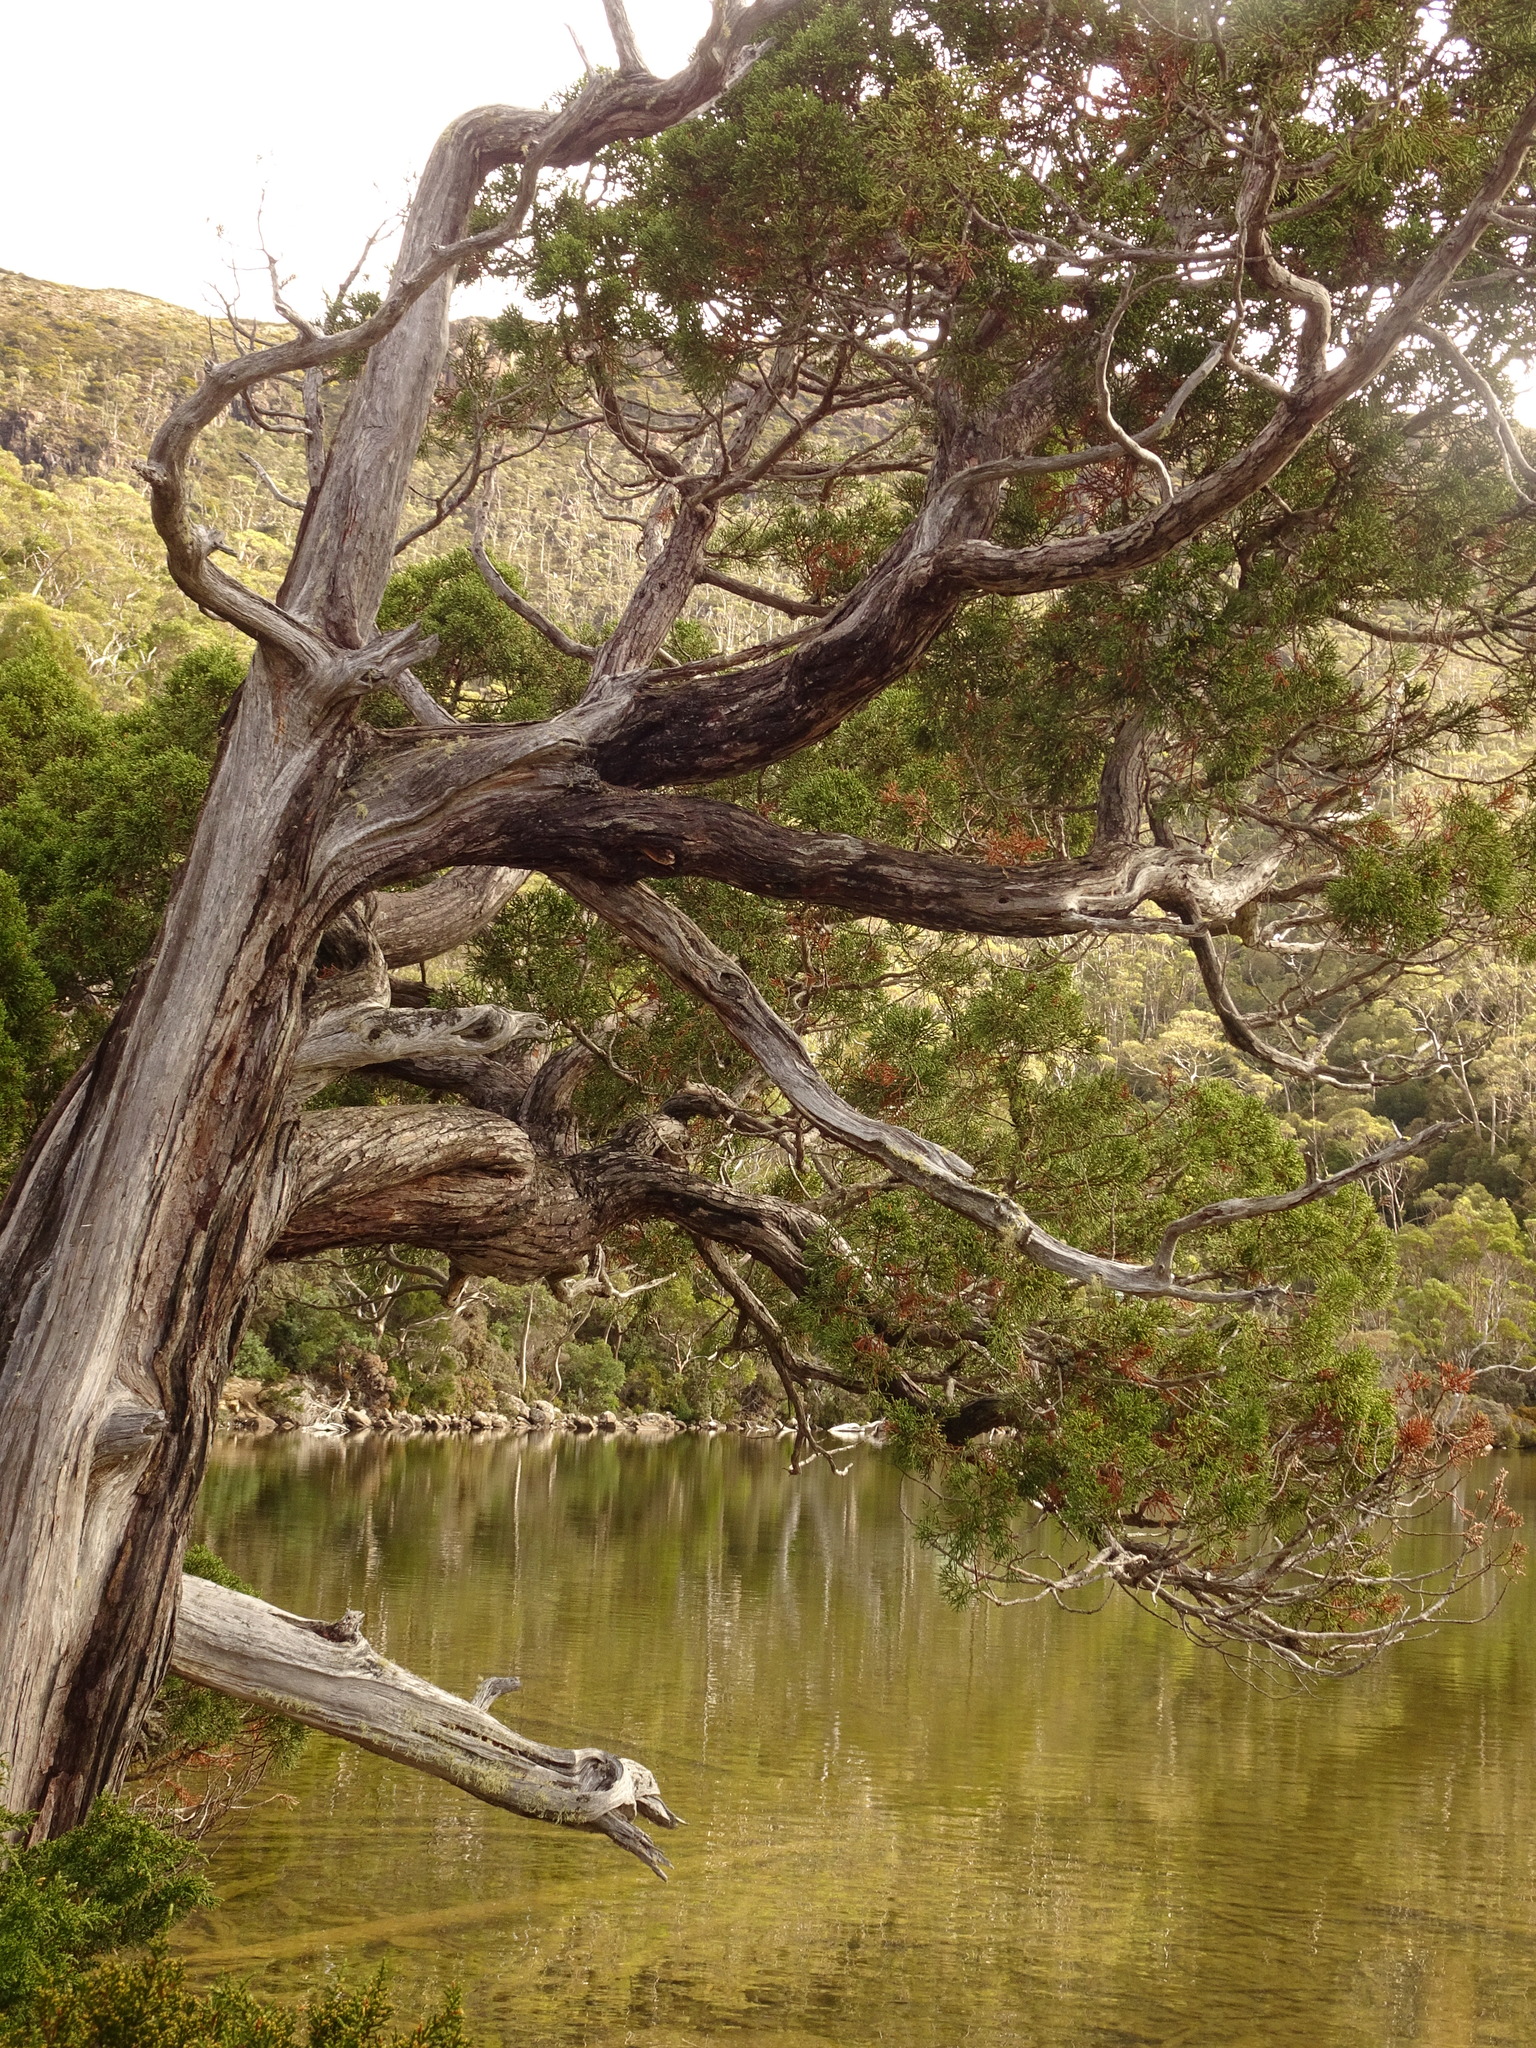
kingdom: Plantae
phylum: Tracheophyta
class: Pinopsida
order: Pinales
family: Cupressaceae
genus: Athrotaxis
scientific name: Athrotaxis cupressoides
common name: Tasmanian pencil pine
